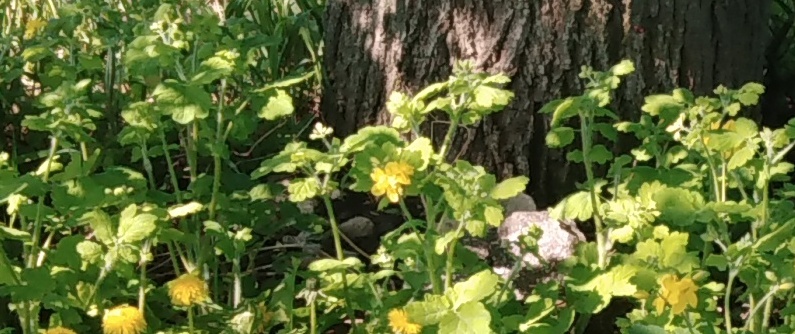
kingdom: Plantae
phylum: Tracheophyta
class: Magnoliopsida
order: Ranunculales
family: Papaveraceae
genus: Chelidonium
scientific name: Chelidonium majus
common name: Greater celandine
